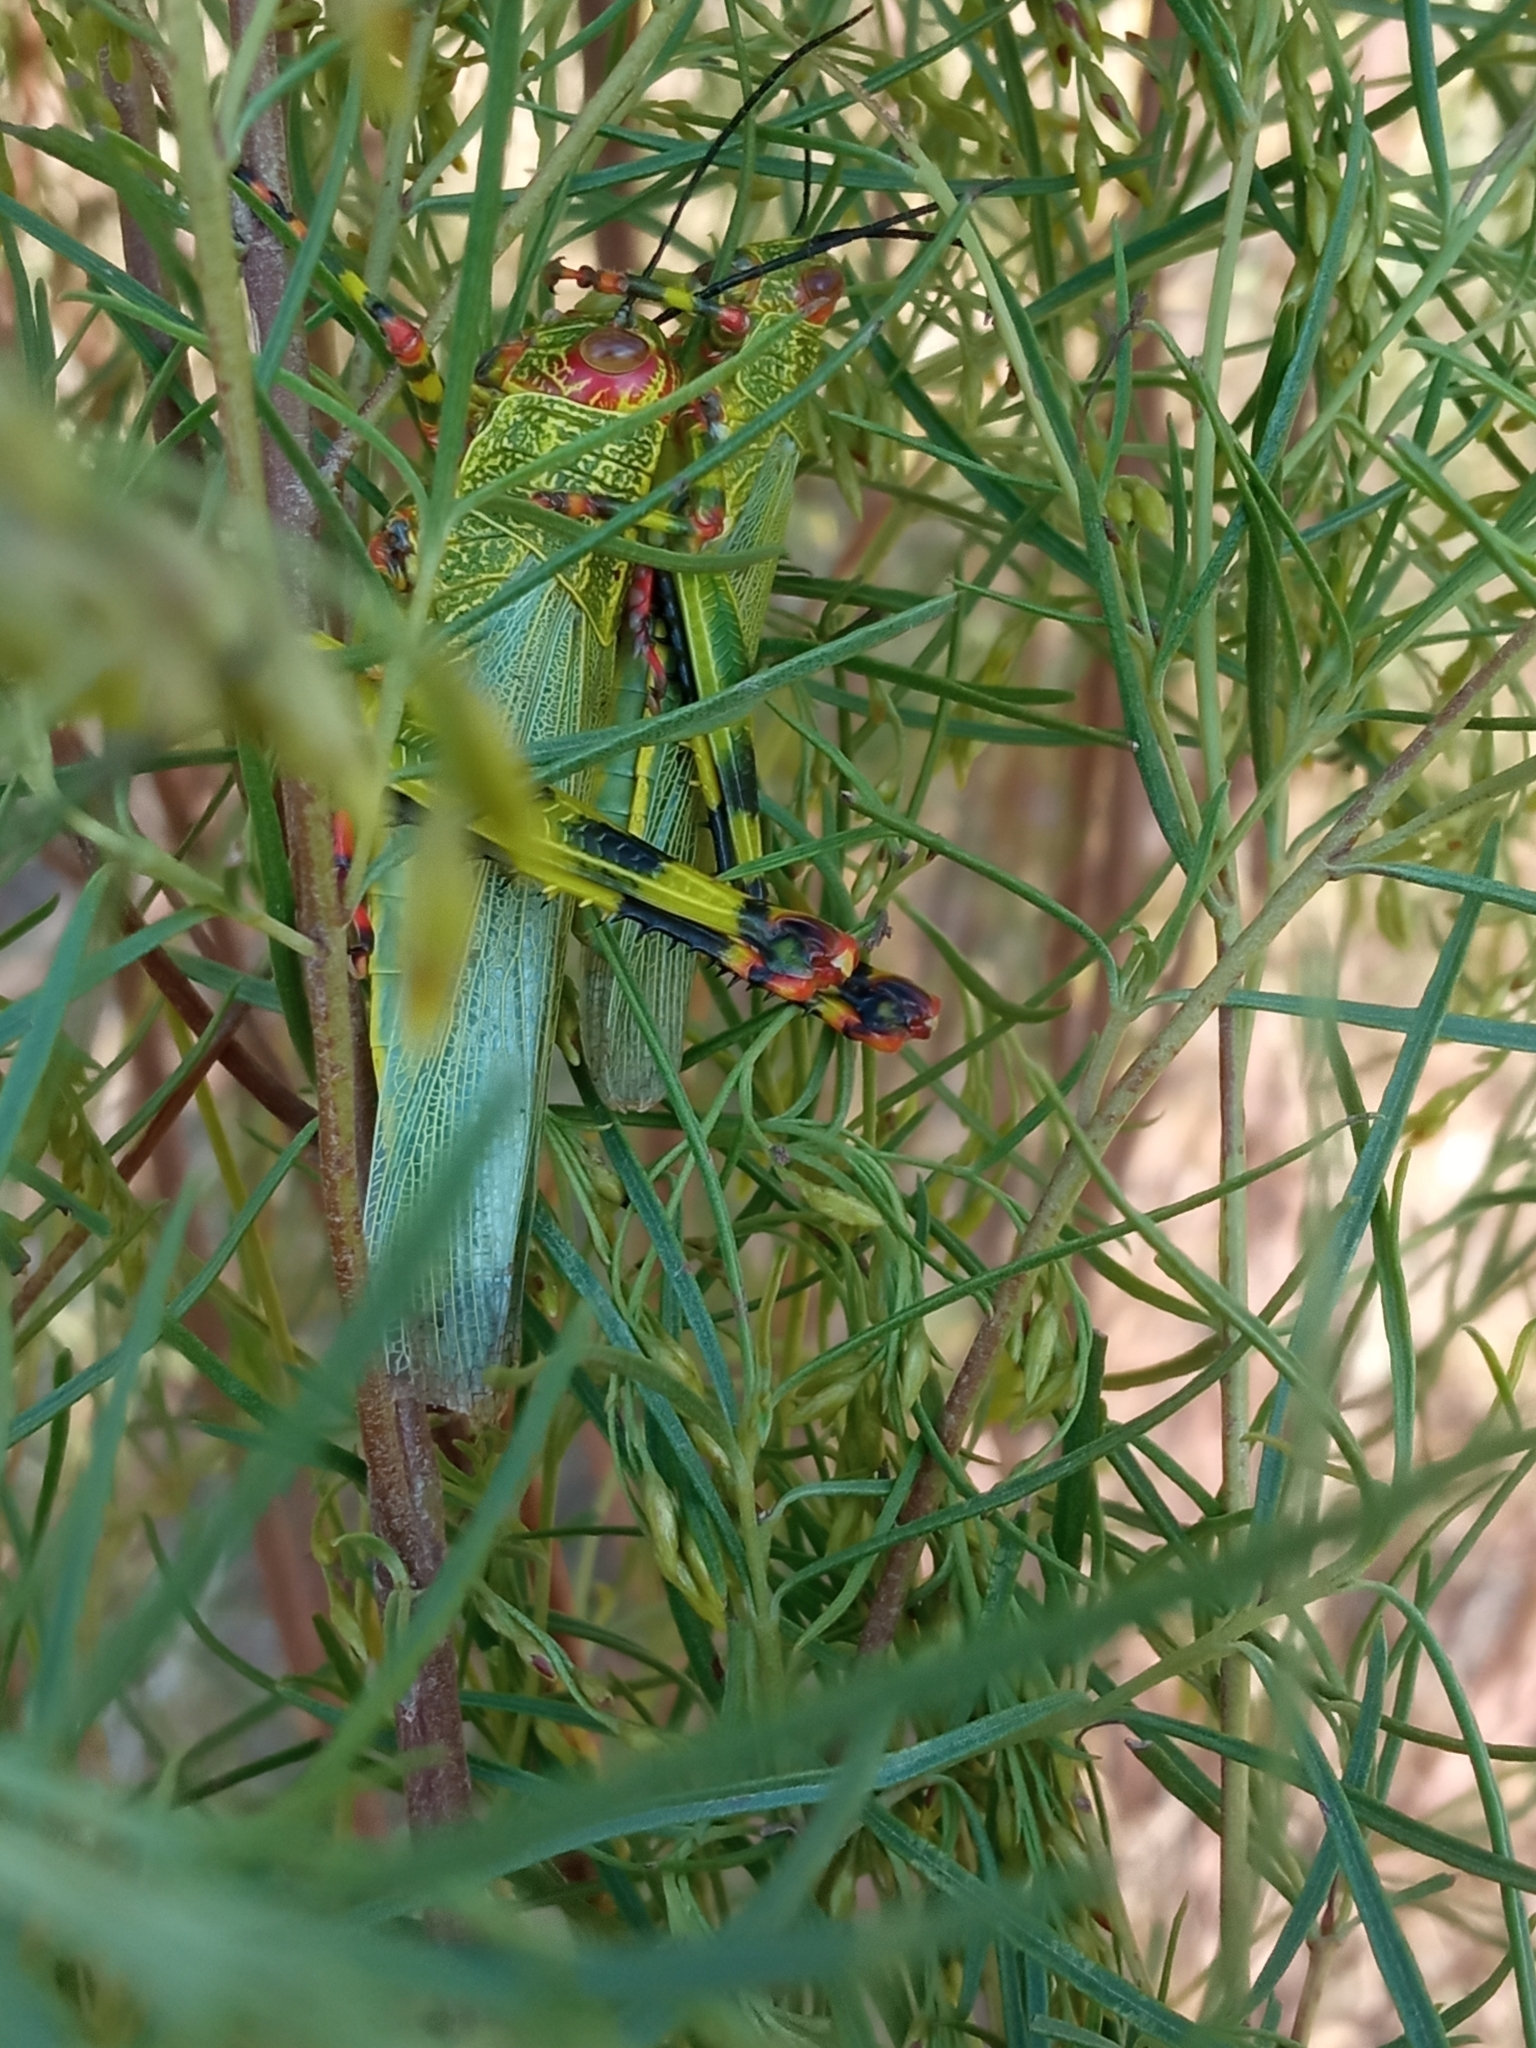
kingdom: Animalia
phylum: Arthropoda
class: Insecta
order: Orthoptera
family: Romaleidae
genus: Zoniopoda
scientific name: Zoniopoda tarsata
